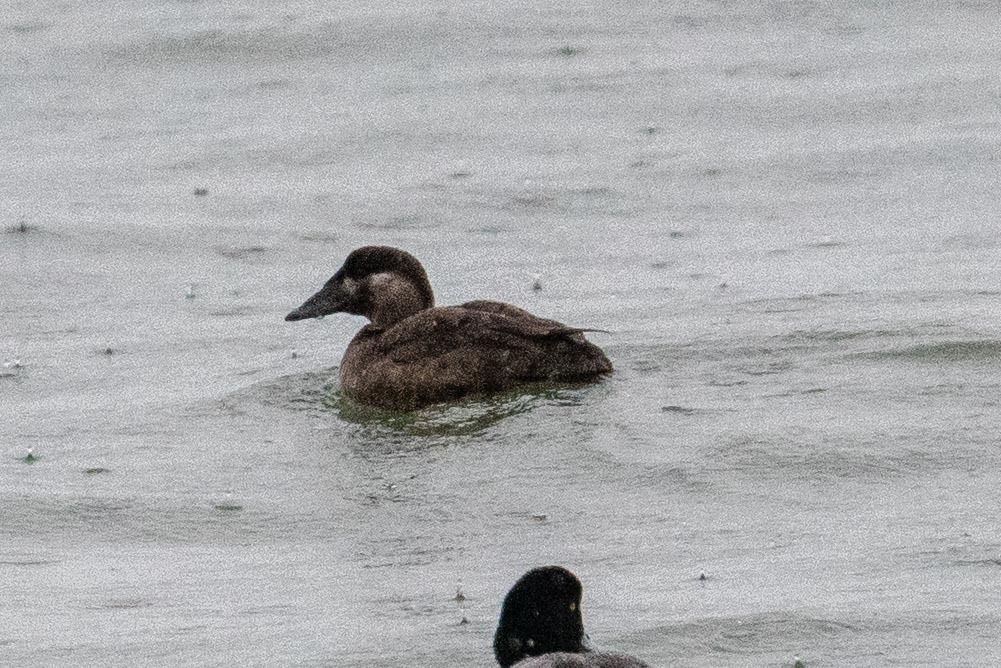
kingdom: Animalia
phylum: Chordata
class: Aves
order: Anseriformes
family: Anatidae
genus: Melanitta
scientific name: Melanitta perspicillata
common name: Surf scoter
